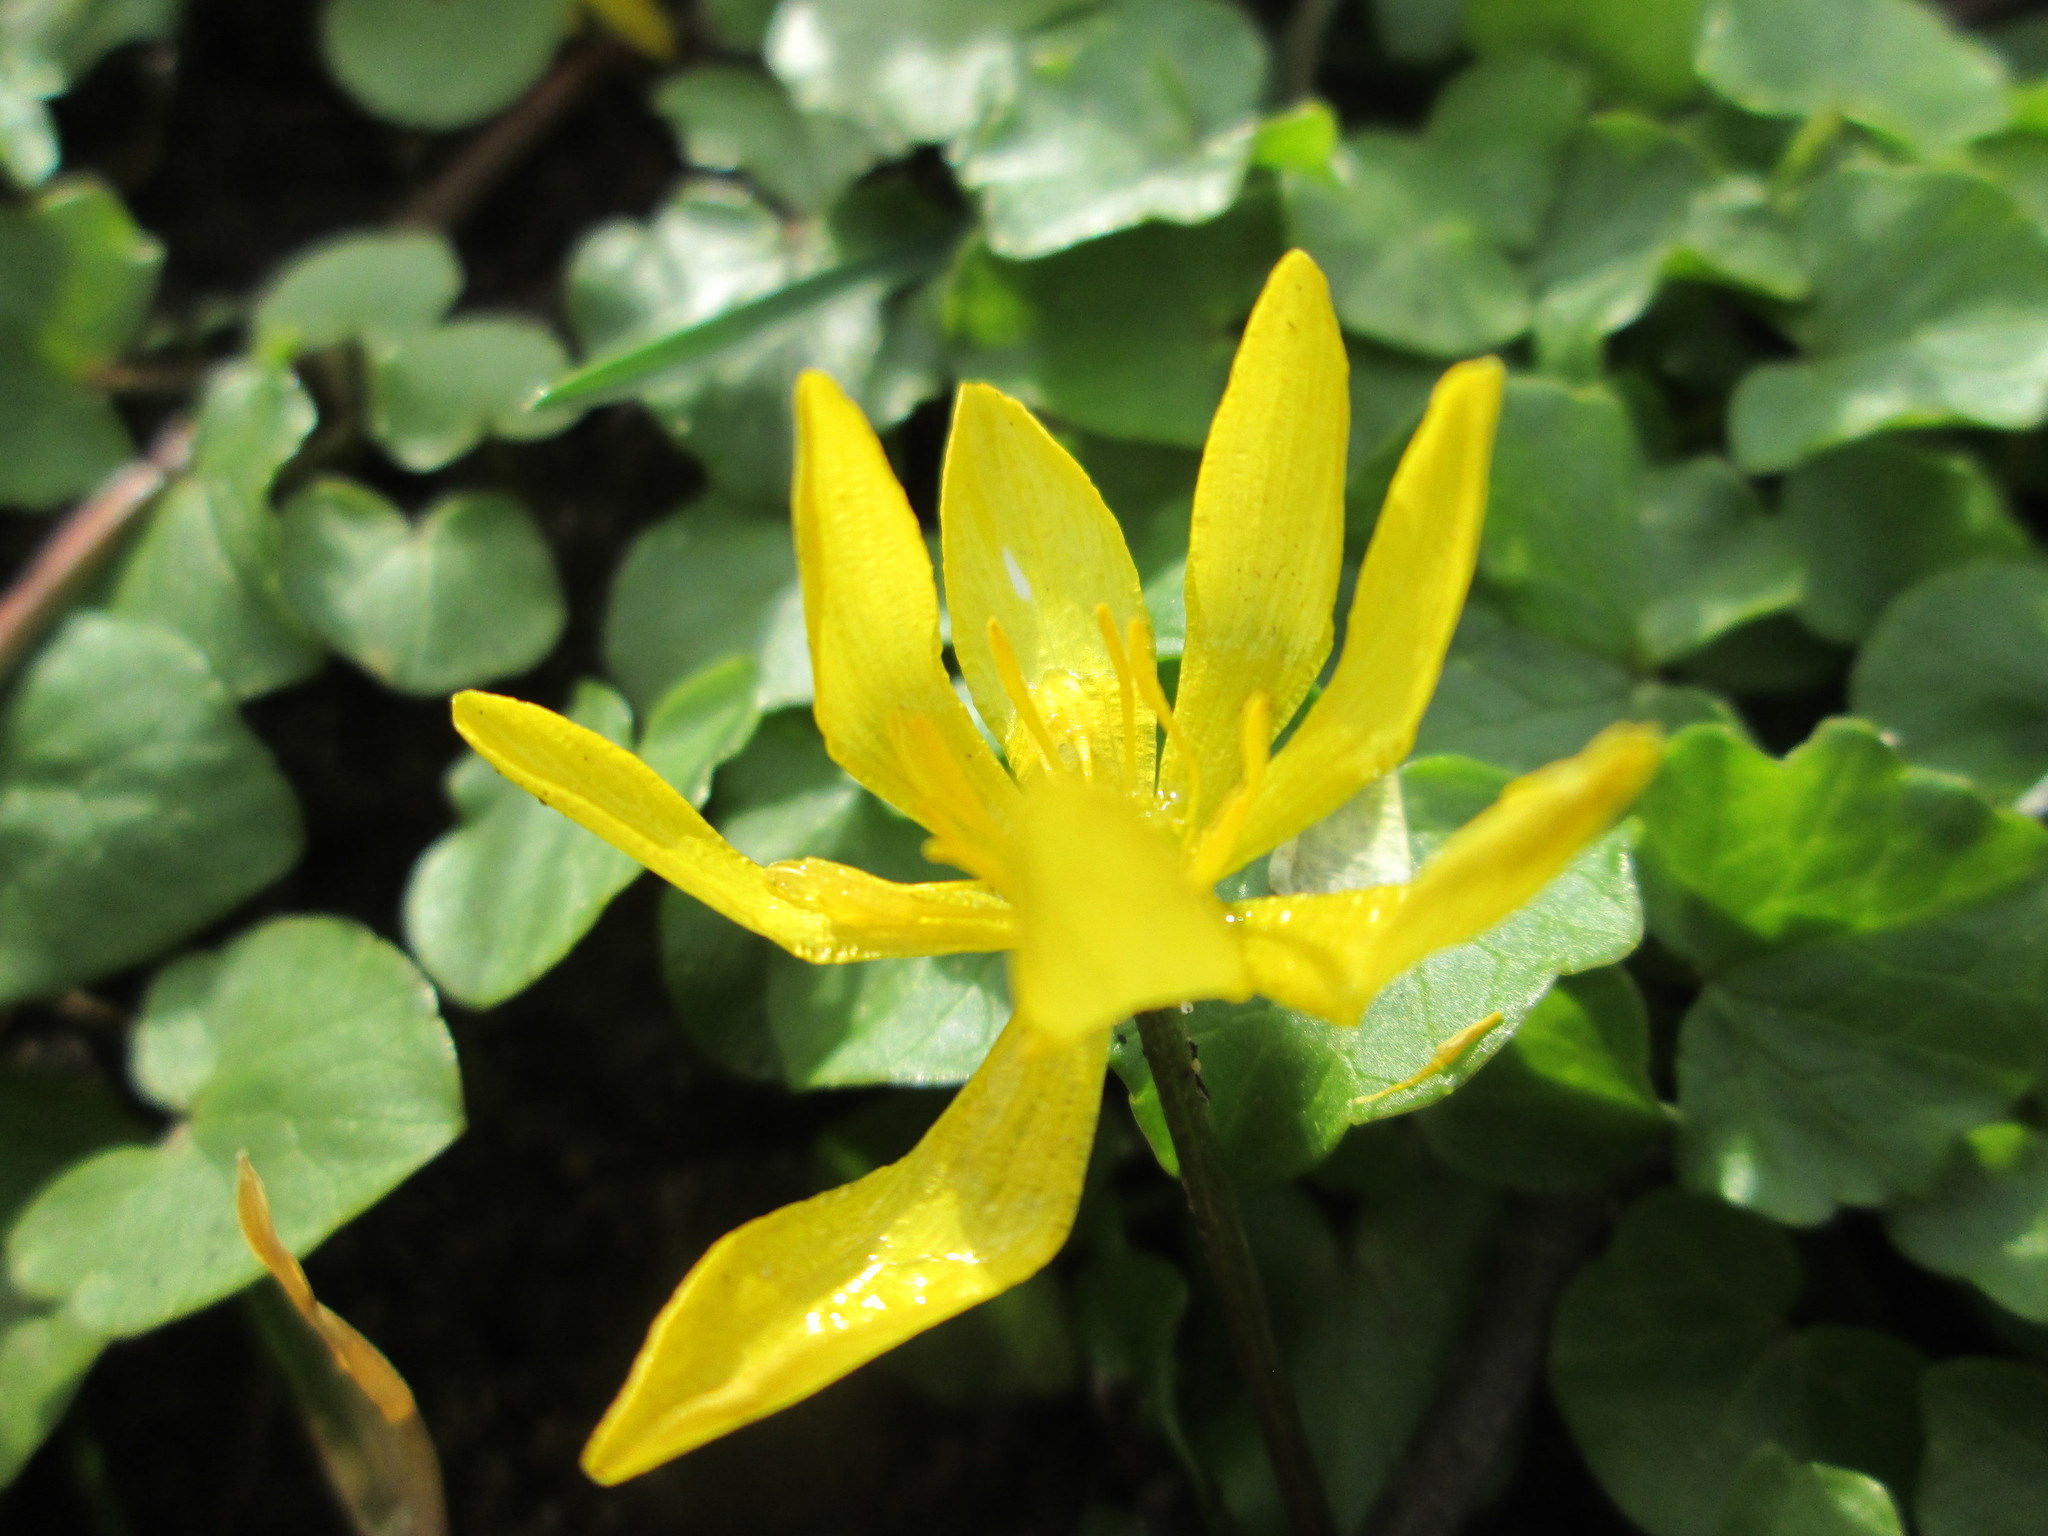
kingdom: Plantae
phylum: Tracheophyta
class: Magnoliopsida
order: Ranunculales
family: Ranunculaceae
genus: Ficaria
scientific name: Ficaria verna
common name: Lesser celandine
